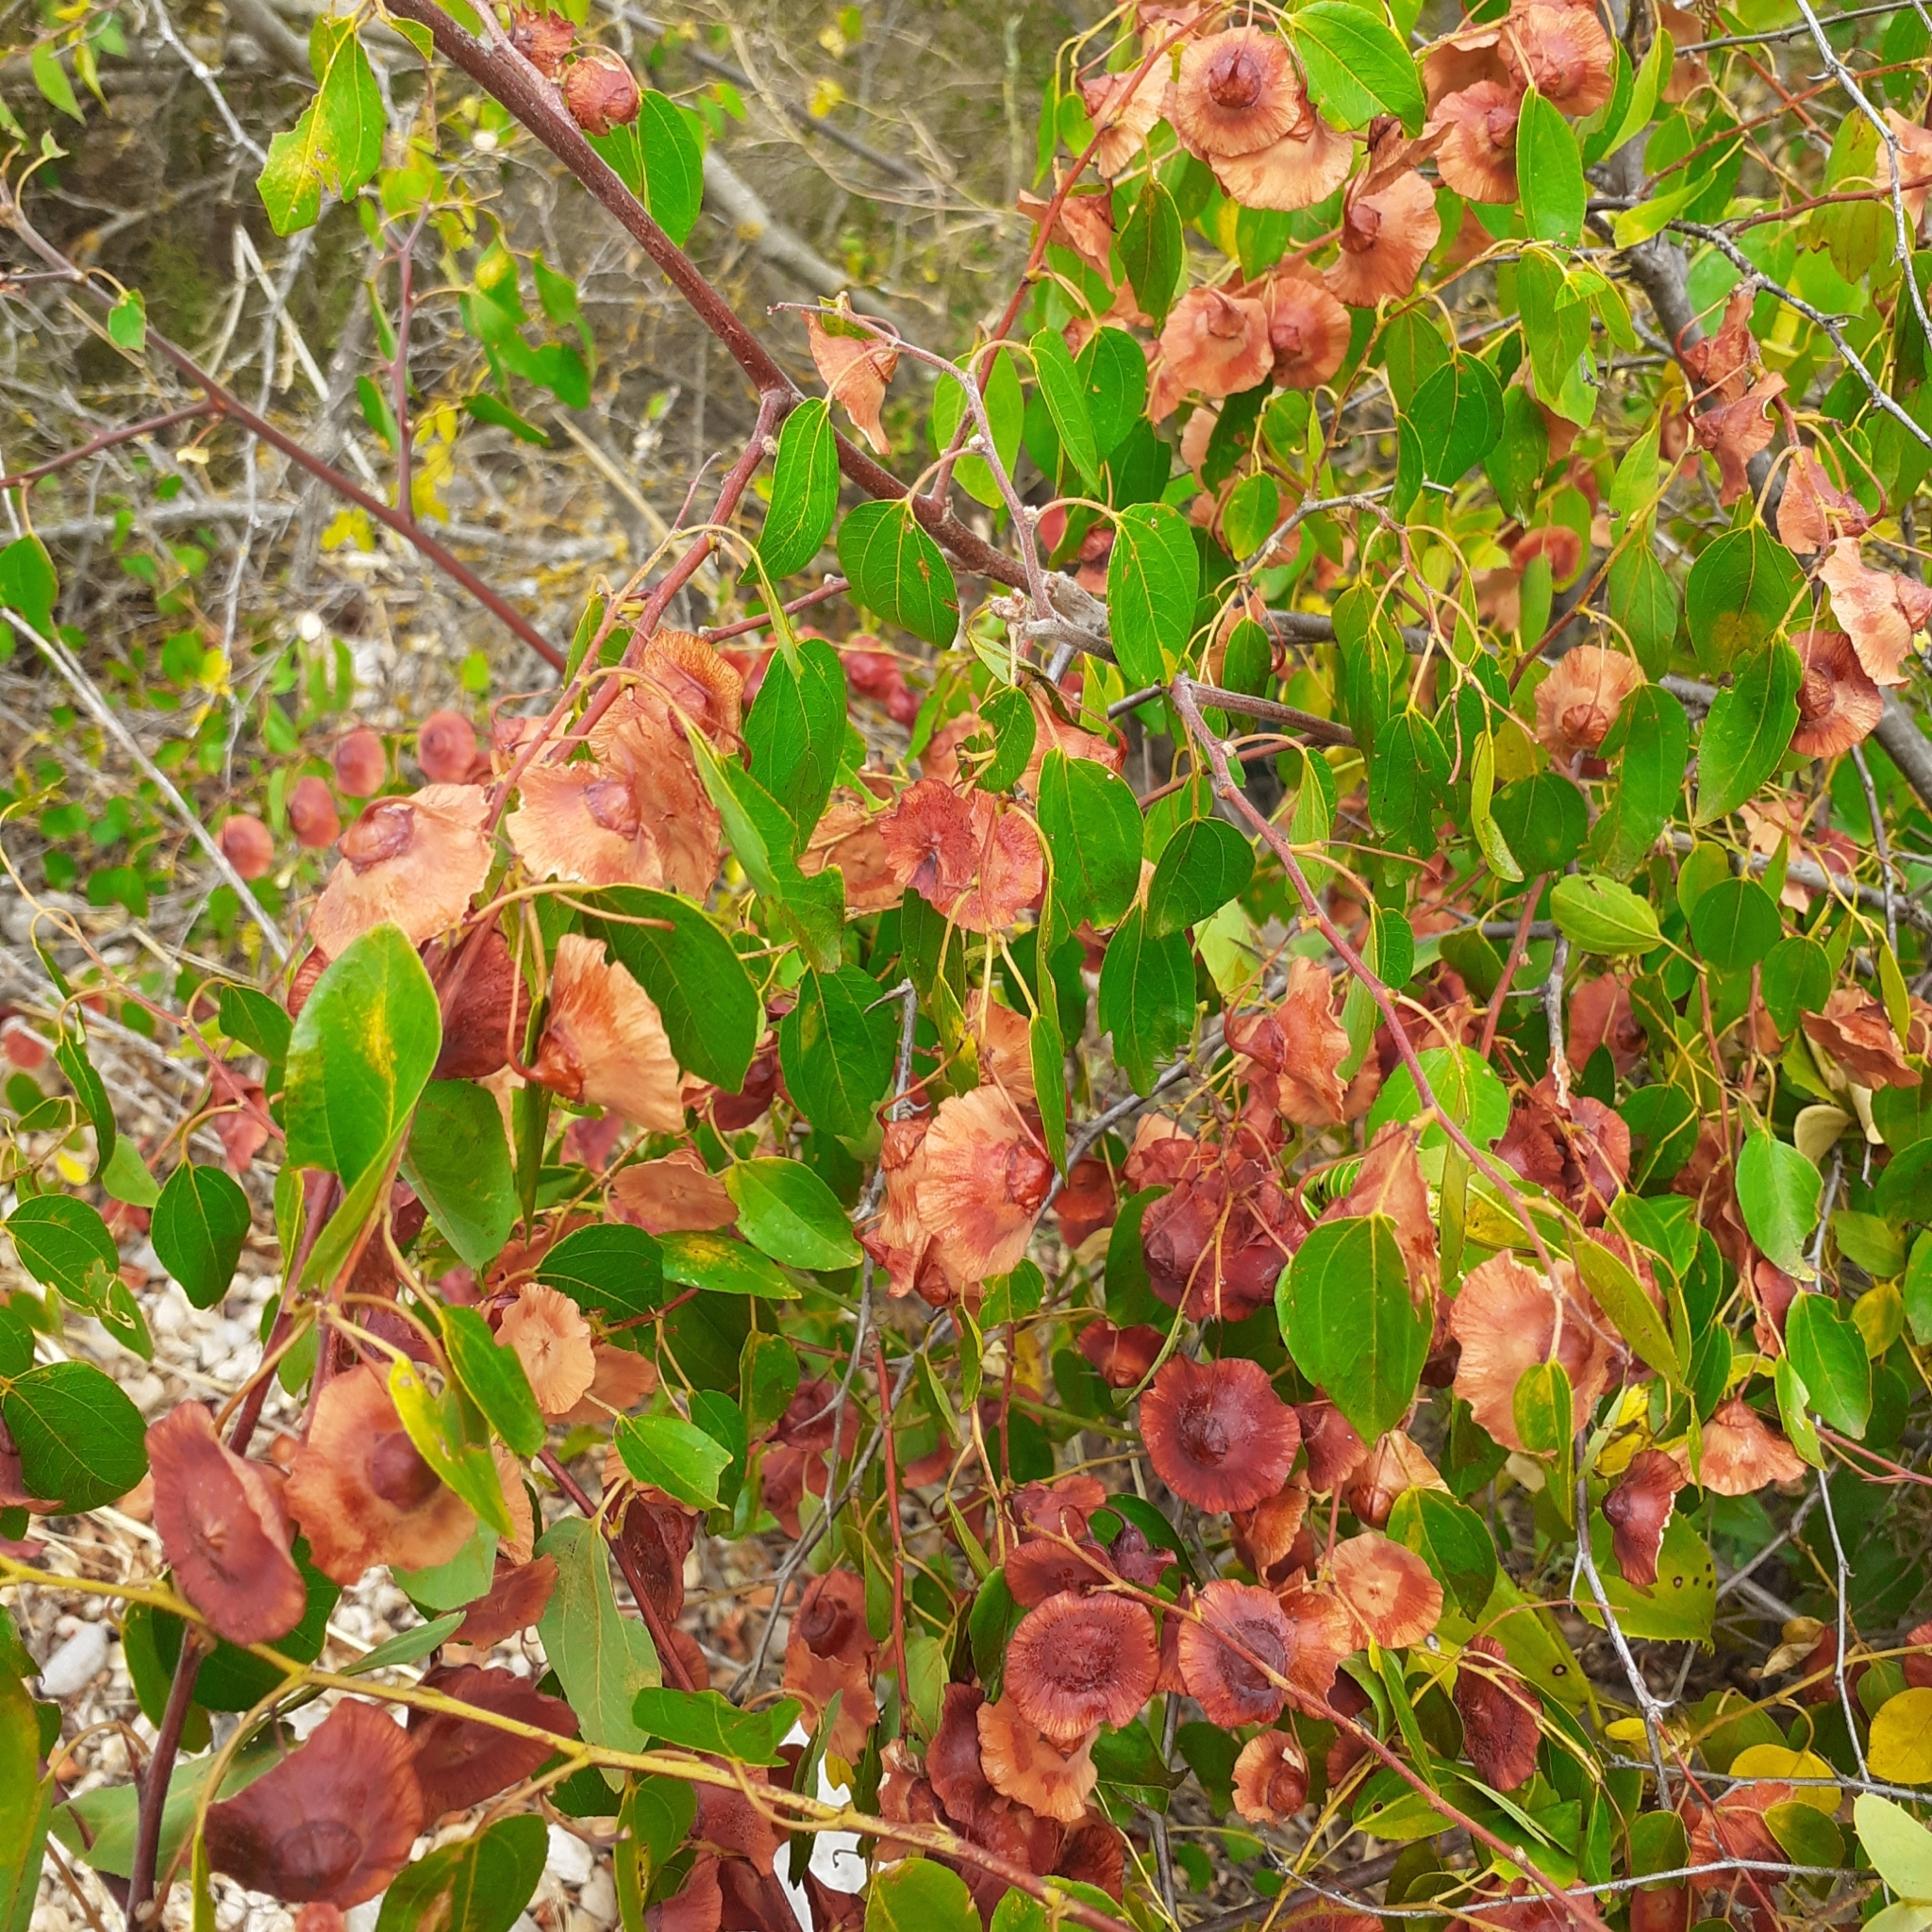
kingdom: Plantae
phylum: Tracheophyta
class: Magnoliopsida
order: Rosales
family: Rhamnaceae
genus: Paliurus
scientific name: Paliurus spina-christi
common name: Jeruselem thorn
